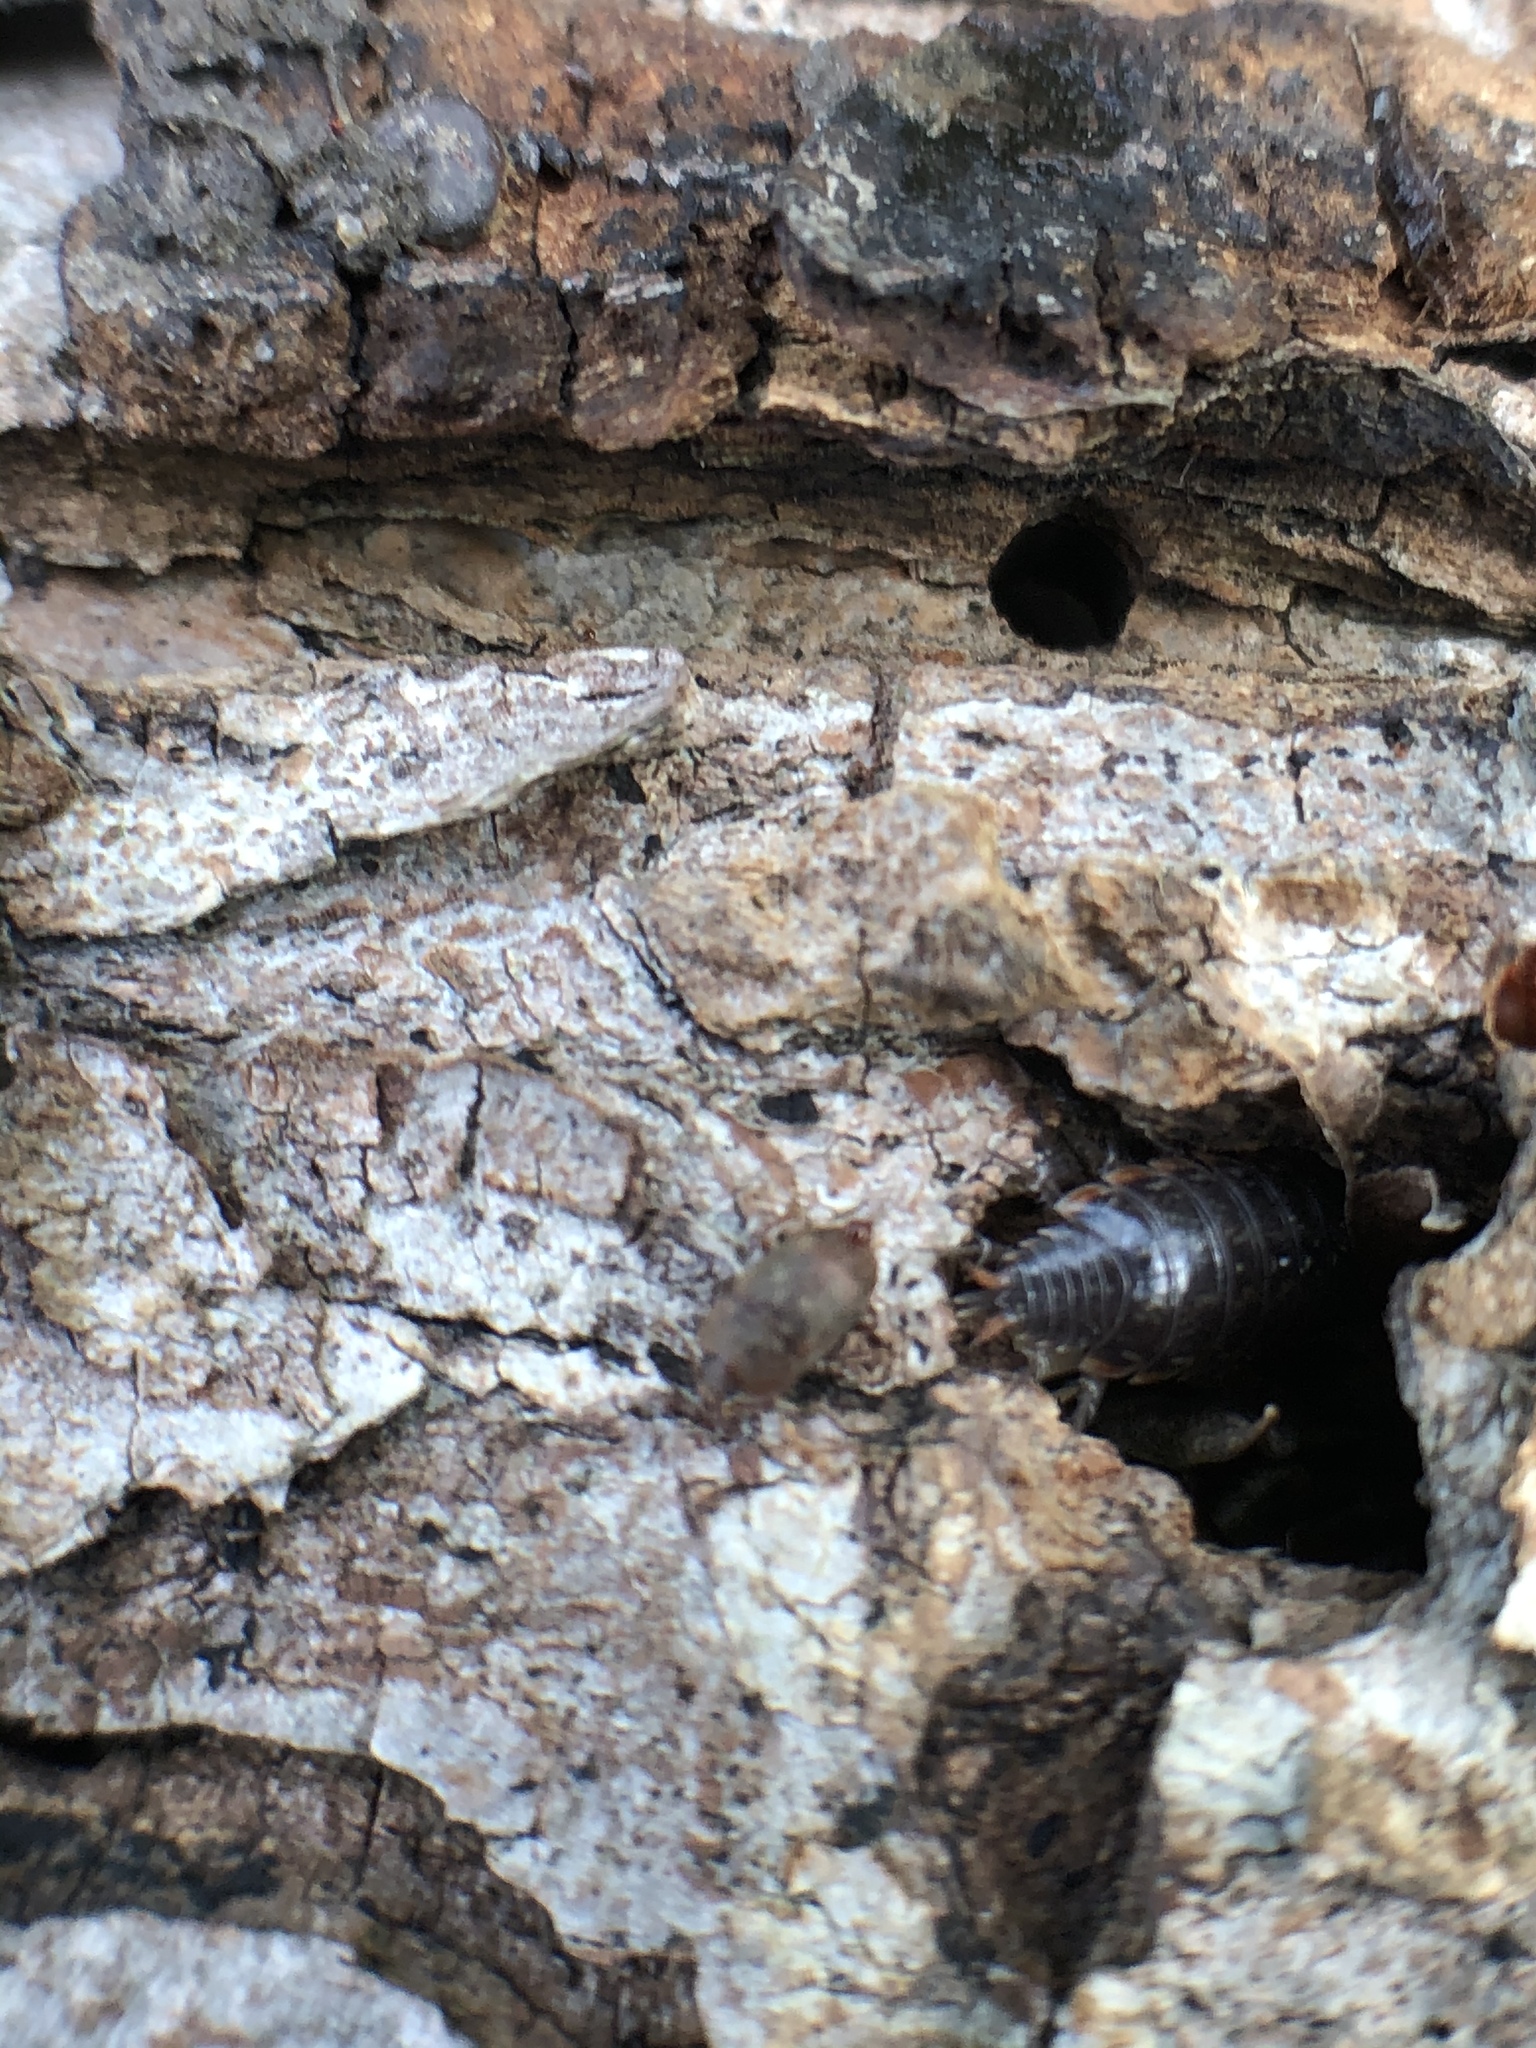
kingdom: Animalia
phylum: Arthropoda
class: Malacostraca
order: Isopoda
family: Philosciidae
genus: Philoscia
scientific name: Philoscia muscorum
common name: Common striped woodlouse
